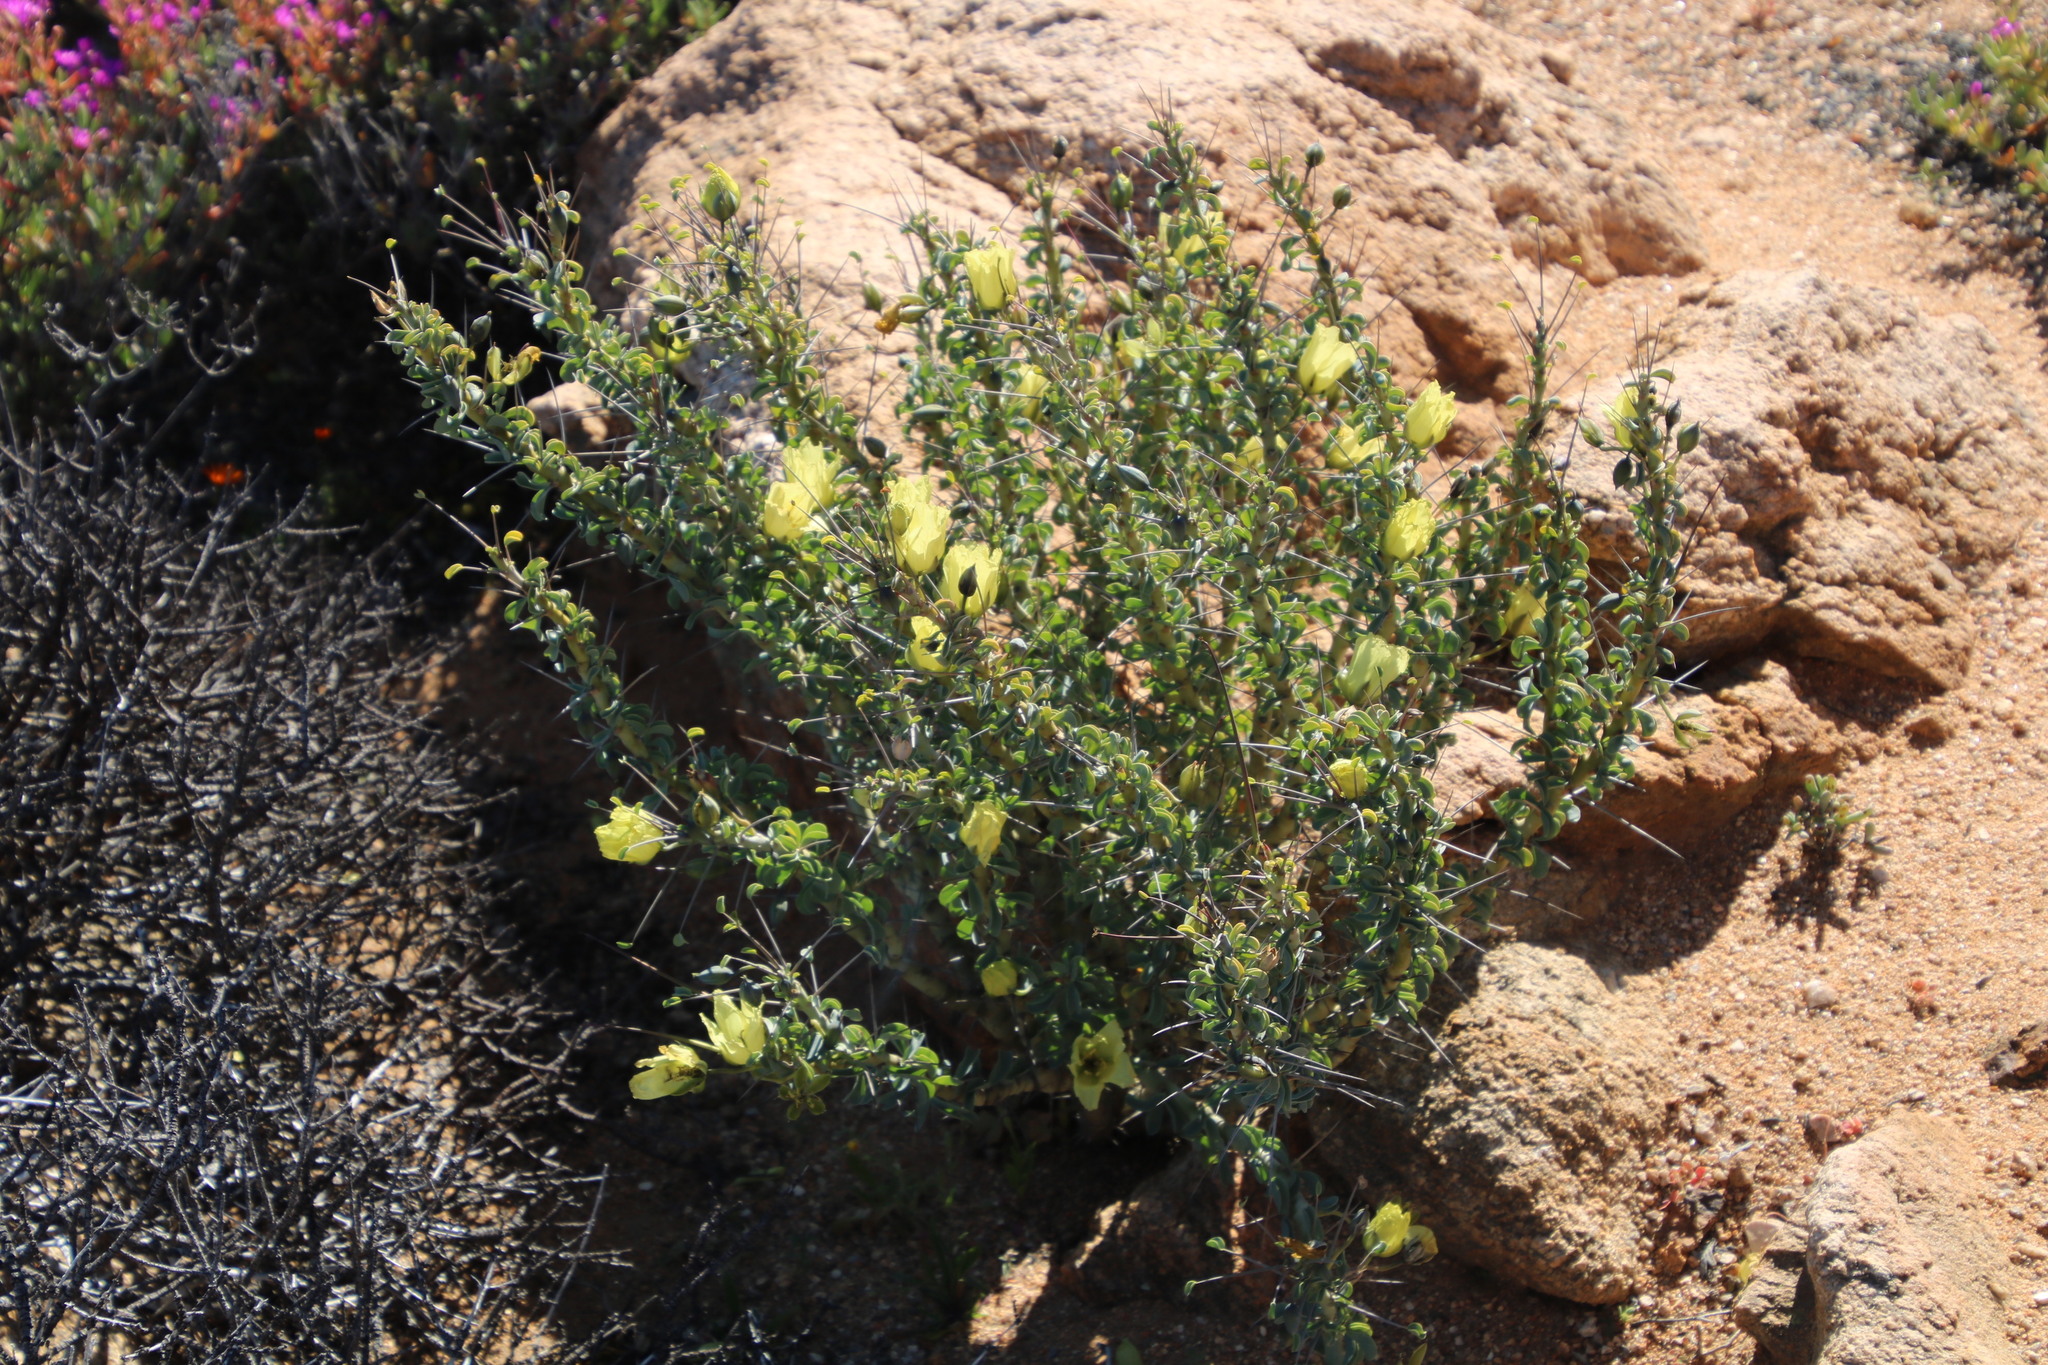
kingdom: Plantae
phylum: Tracheophyta
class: Magnoliopsida
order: Geraniales
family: Geraniaceae
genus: Monsonia
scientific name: Monsonia spinosa
